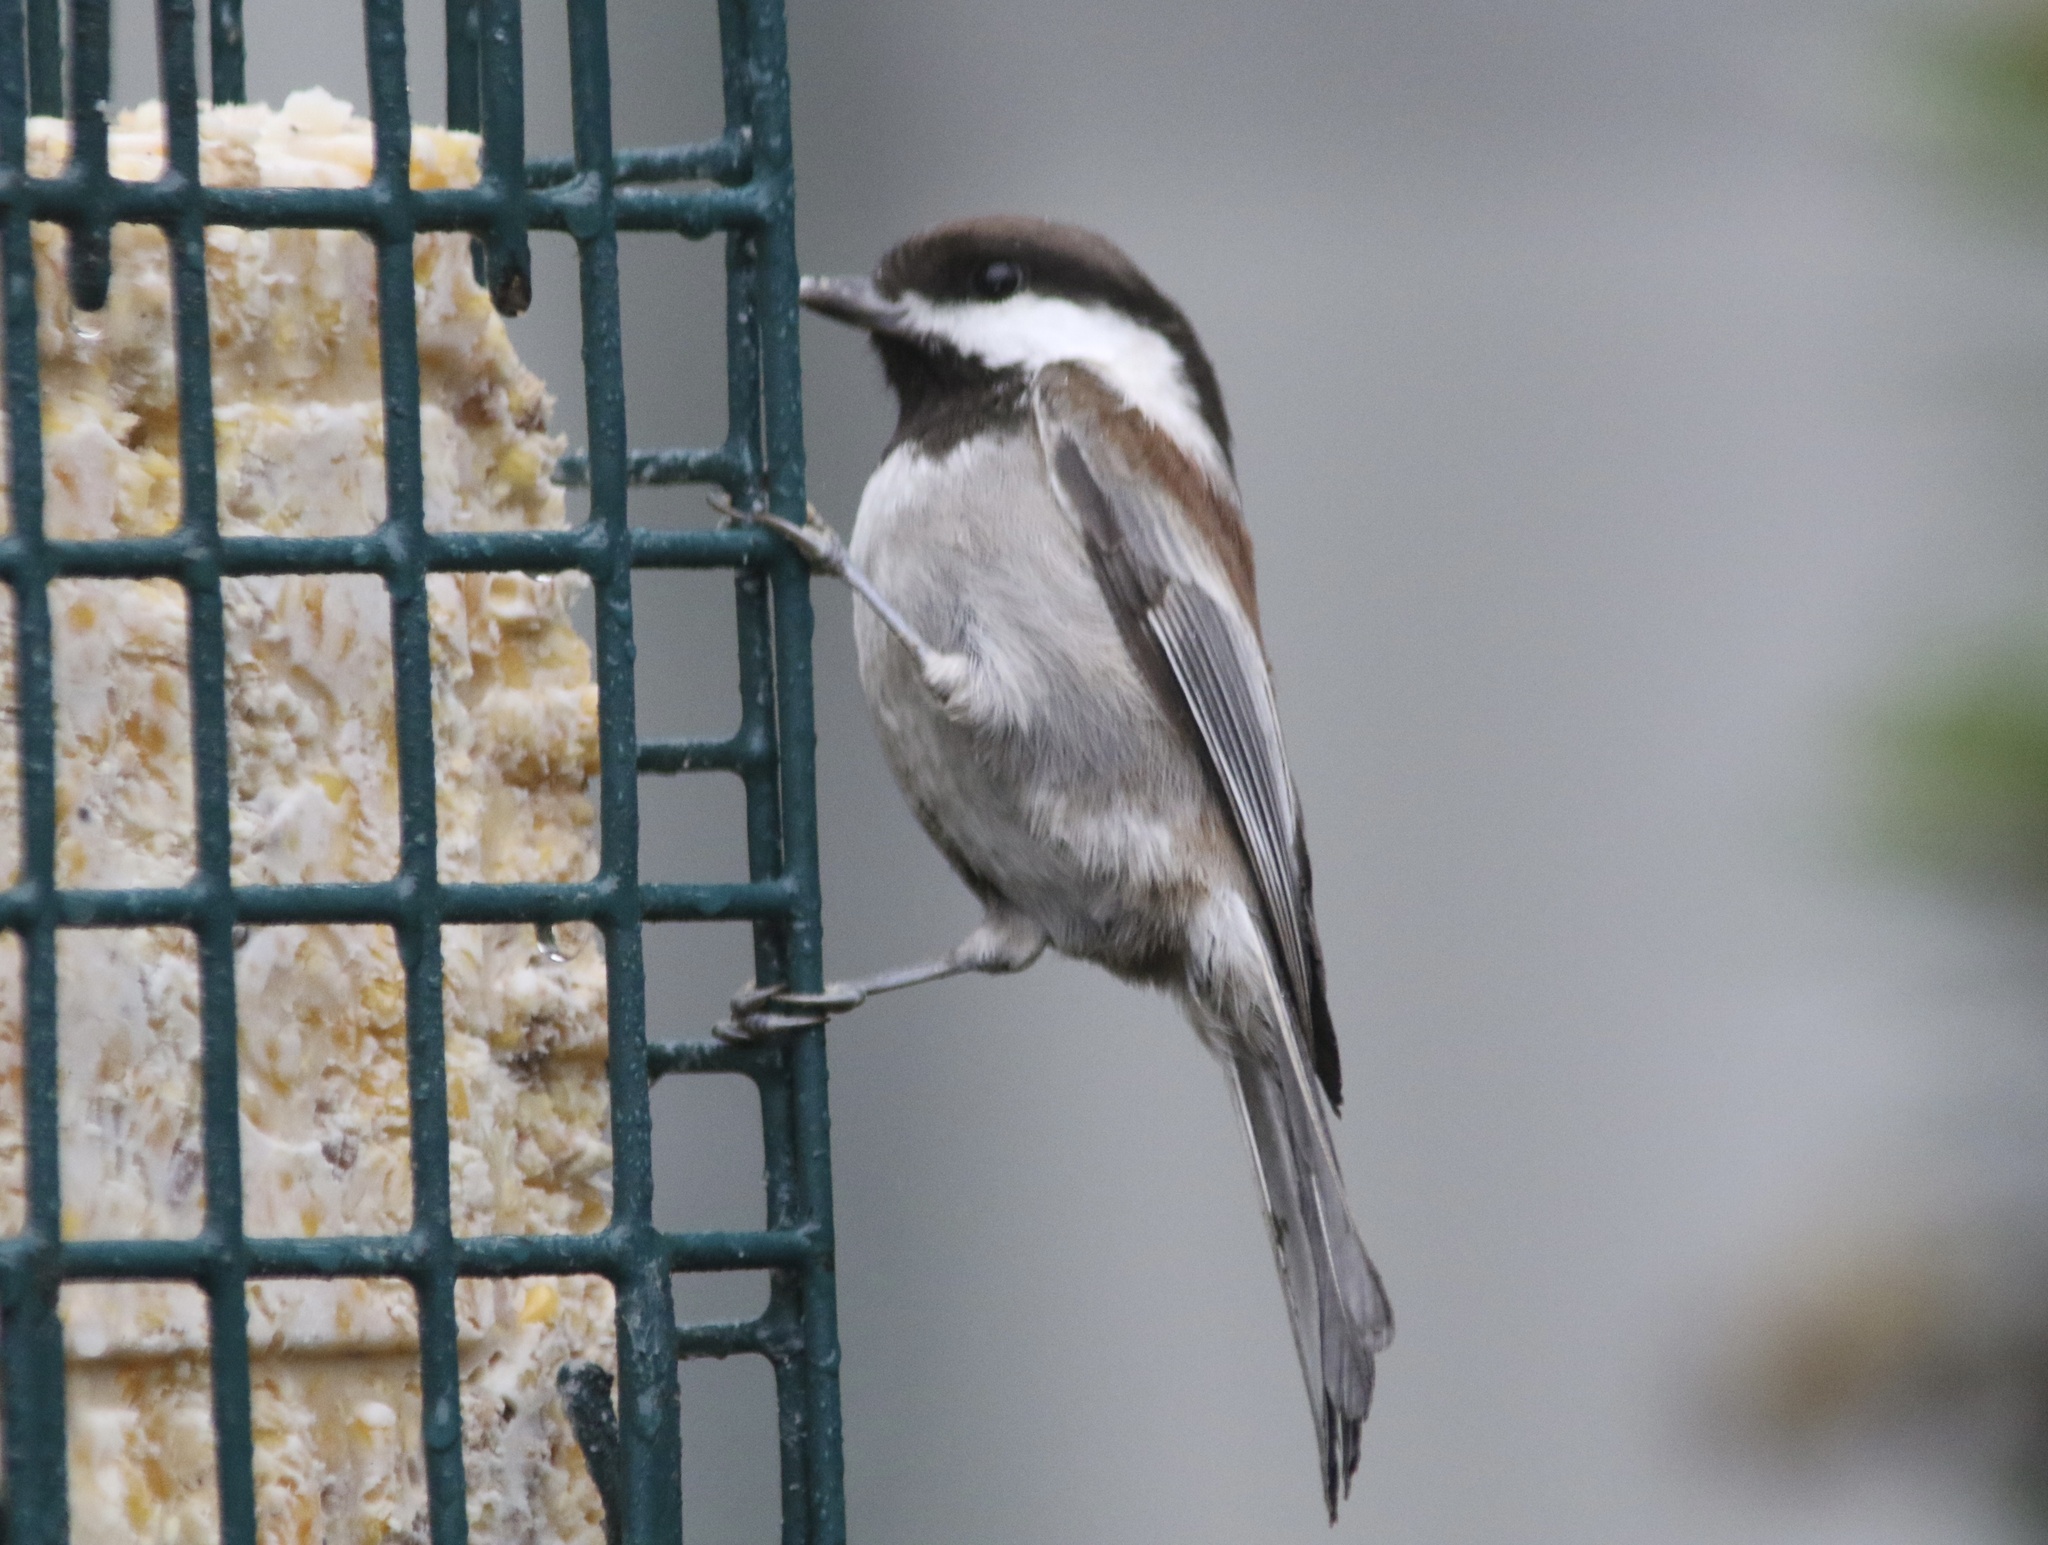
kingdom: Animalia
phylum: Chordata
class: Aves
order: Passeriformes
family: Paridae
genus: Poecile
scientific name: Poecile rufescens
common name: Chestnut-backed chickadee
